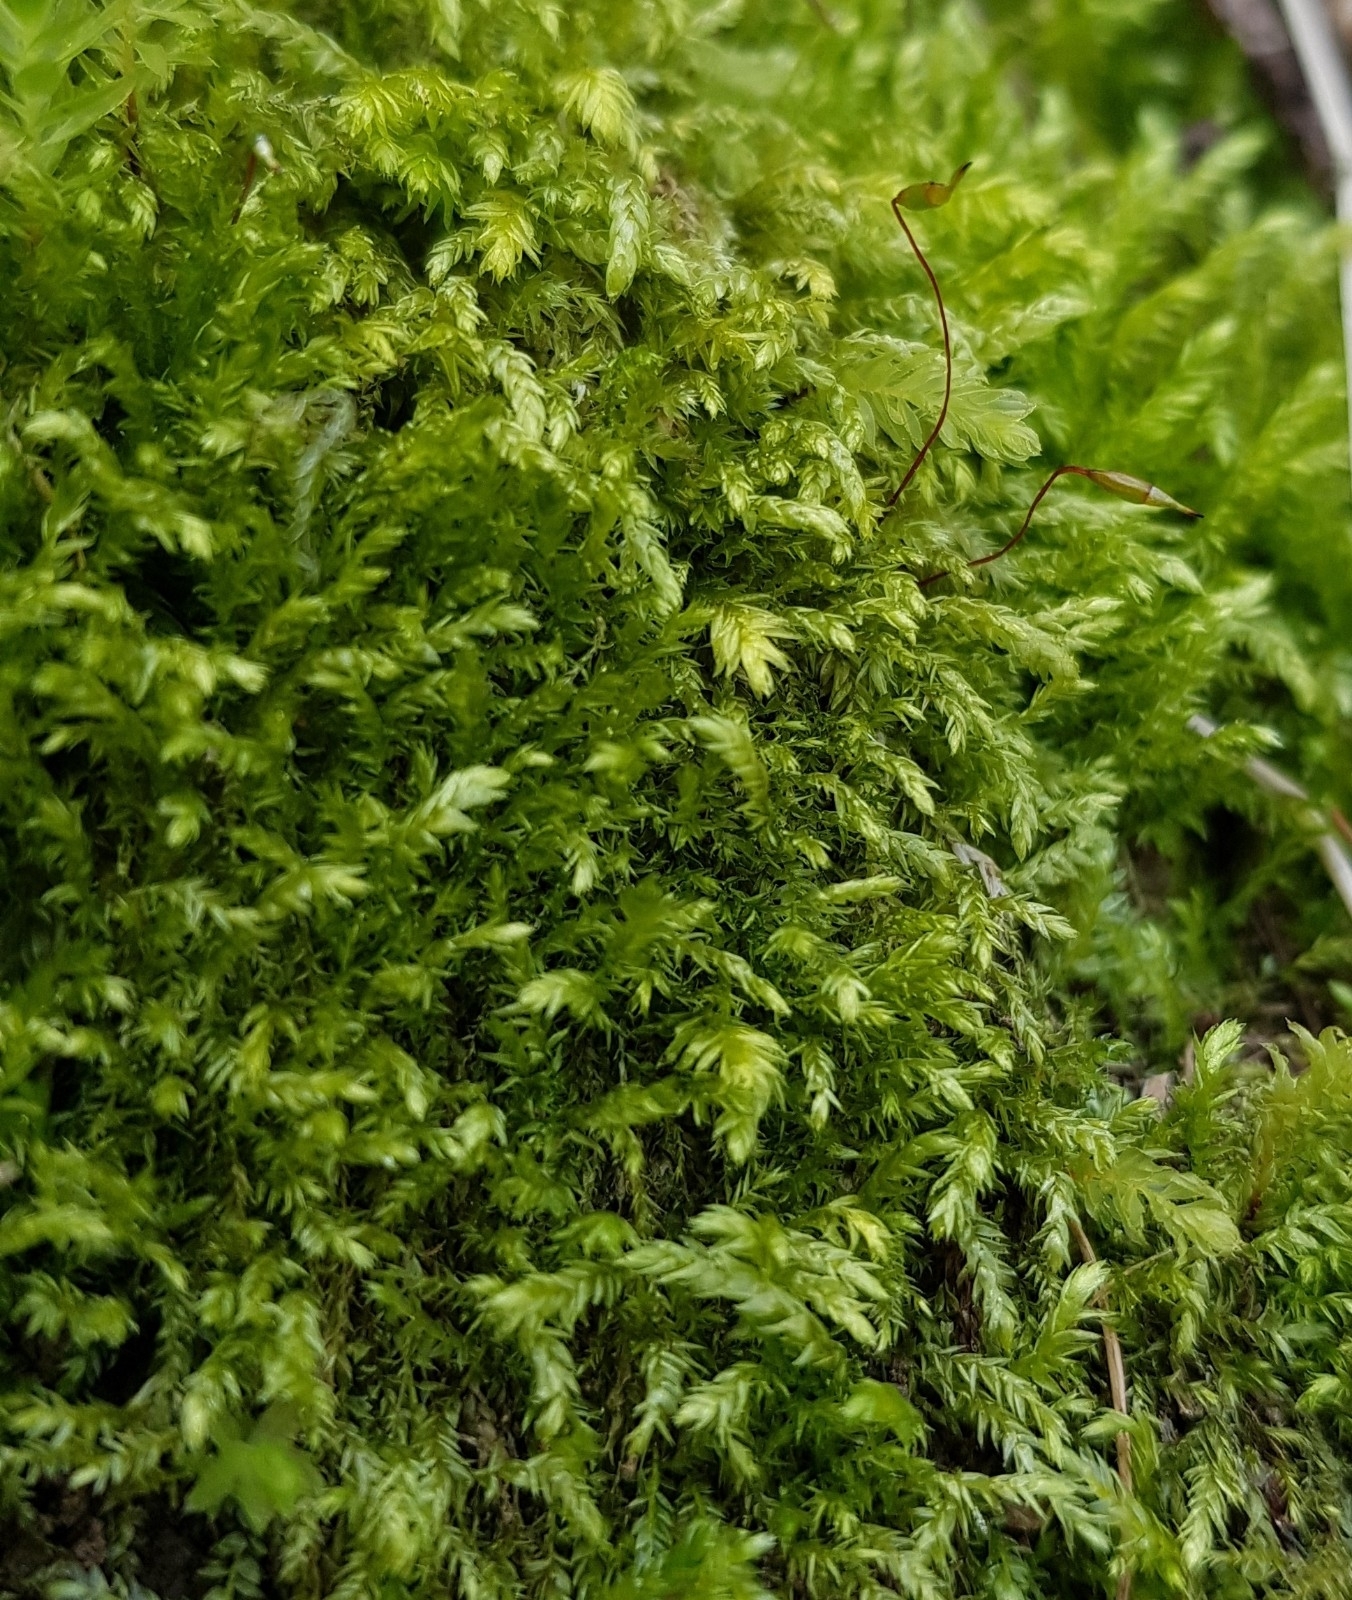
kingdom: Plantae
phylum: Bryophyta
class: Bryopsida
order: Hypnales
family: Amblystegiaceae
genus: Leptodictyum
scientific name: Leptodictyum riparium
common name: Riparian feather moss
